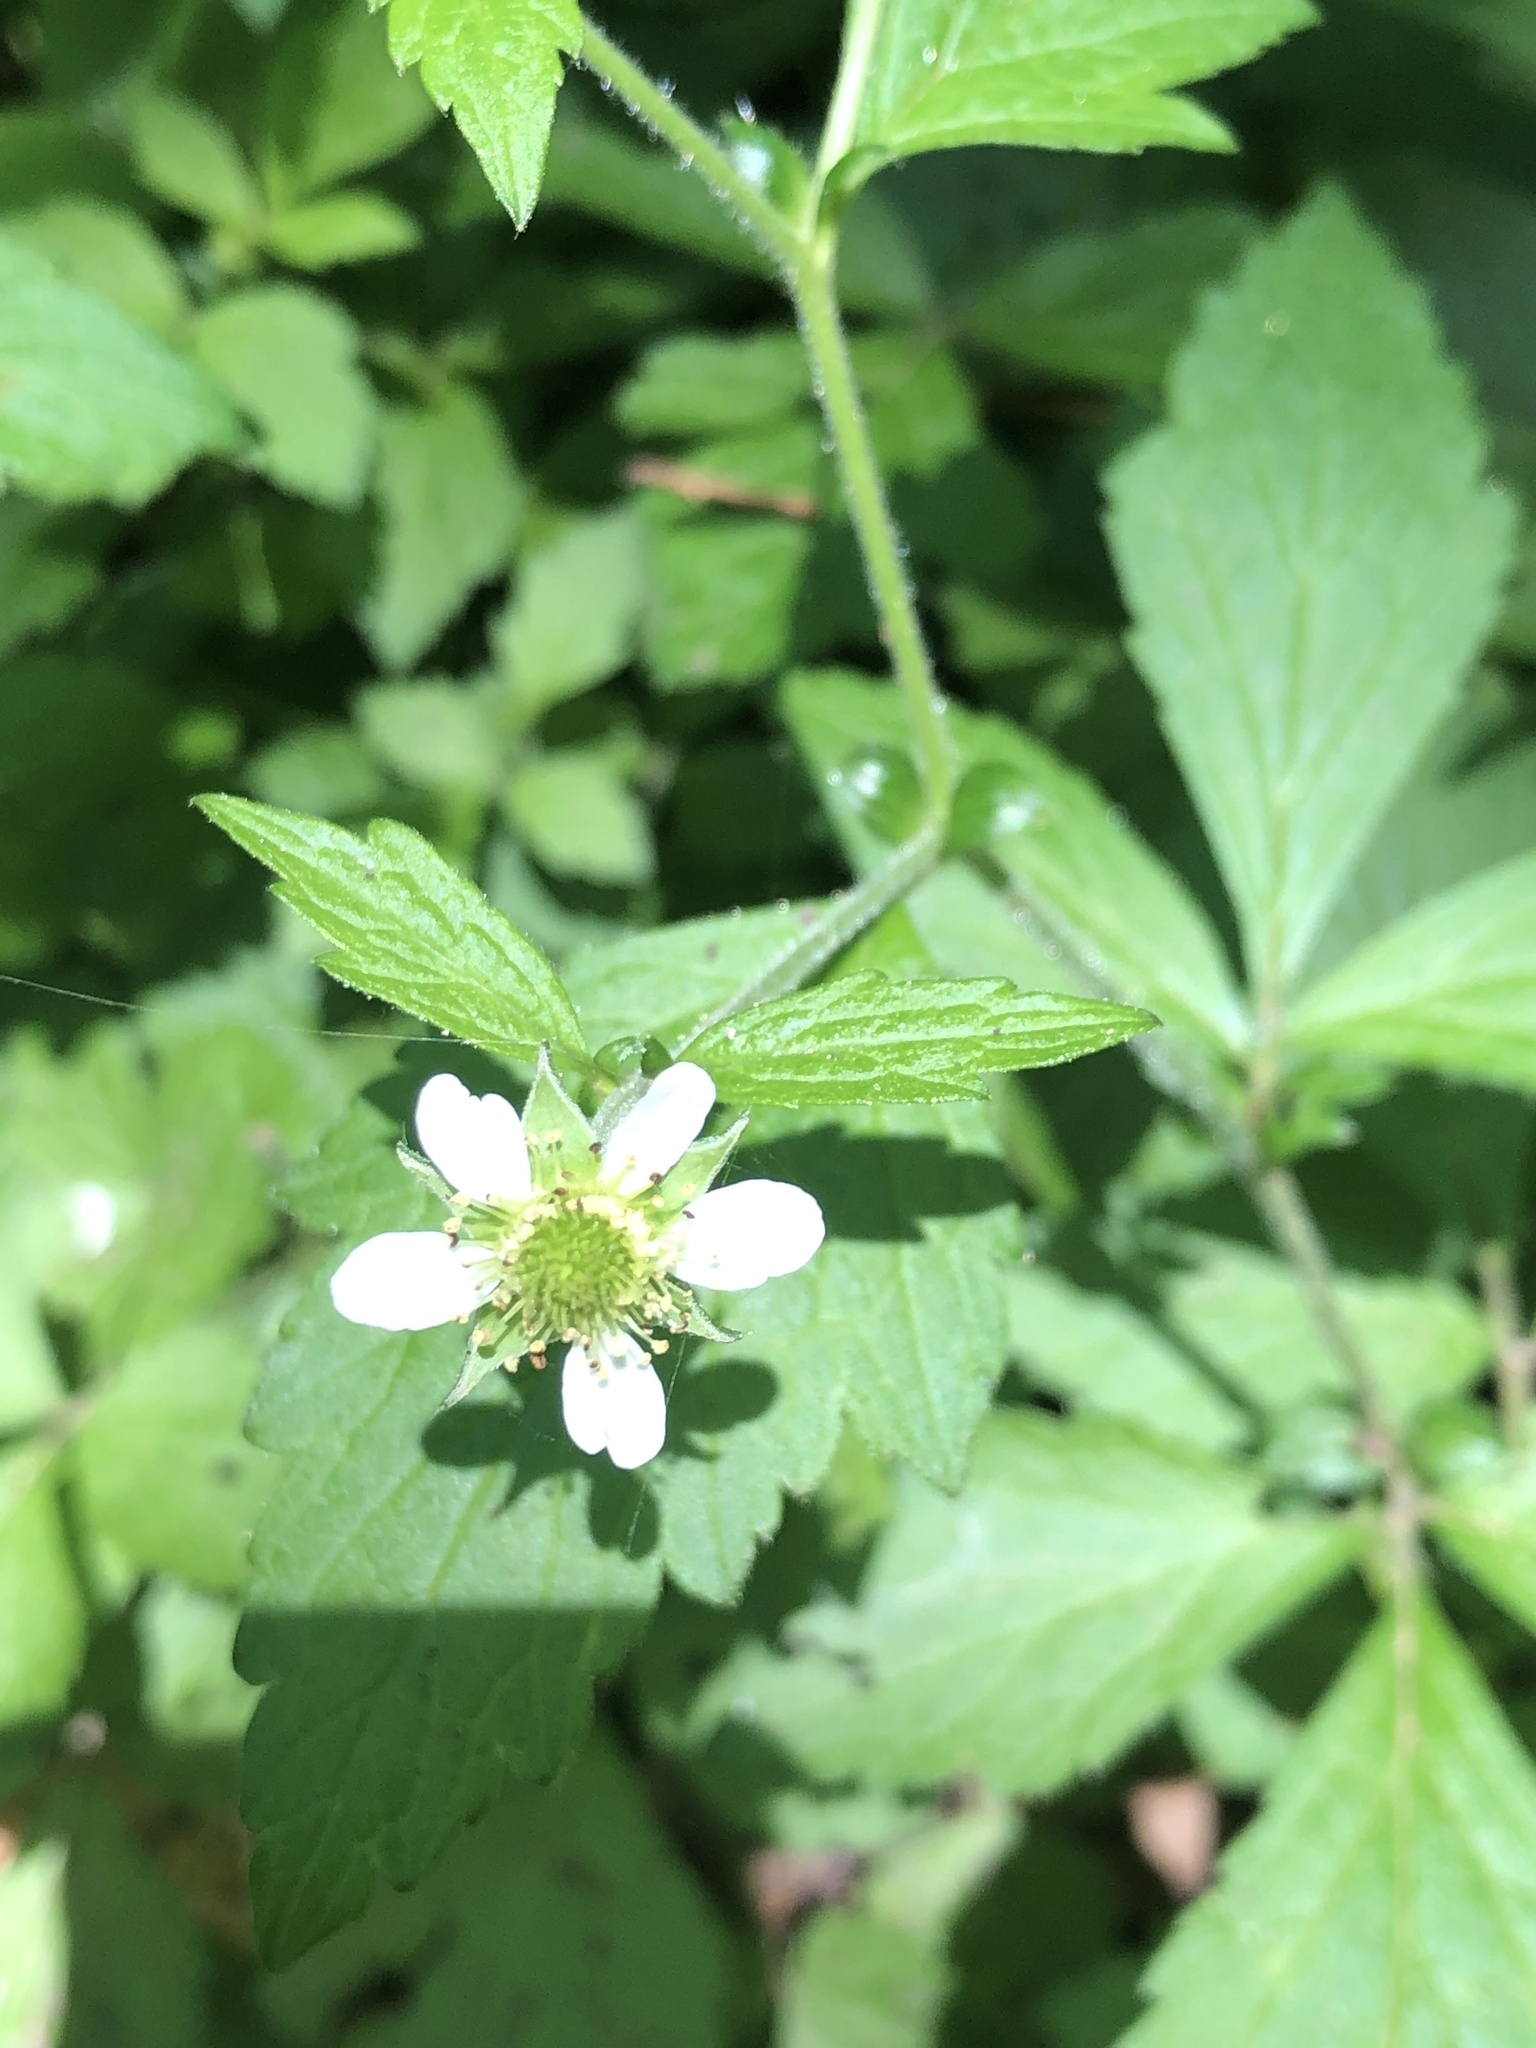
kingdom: Plantae
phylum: Tracheophyta
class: Magnoliopsida
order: Rosales
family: Rosaceae
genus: Geum
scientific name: Geum canadense
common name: White avens
